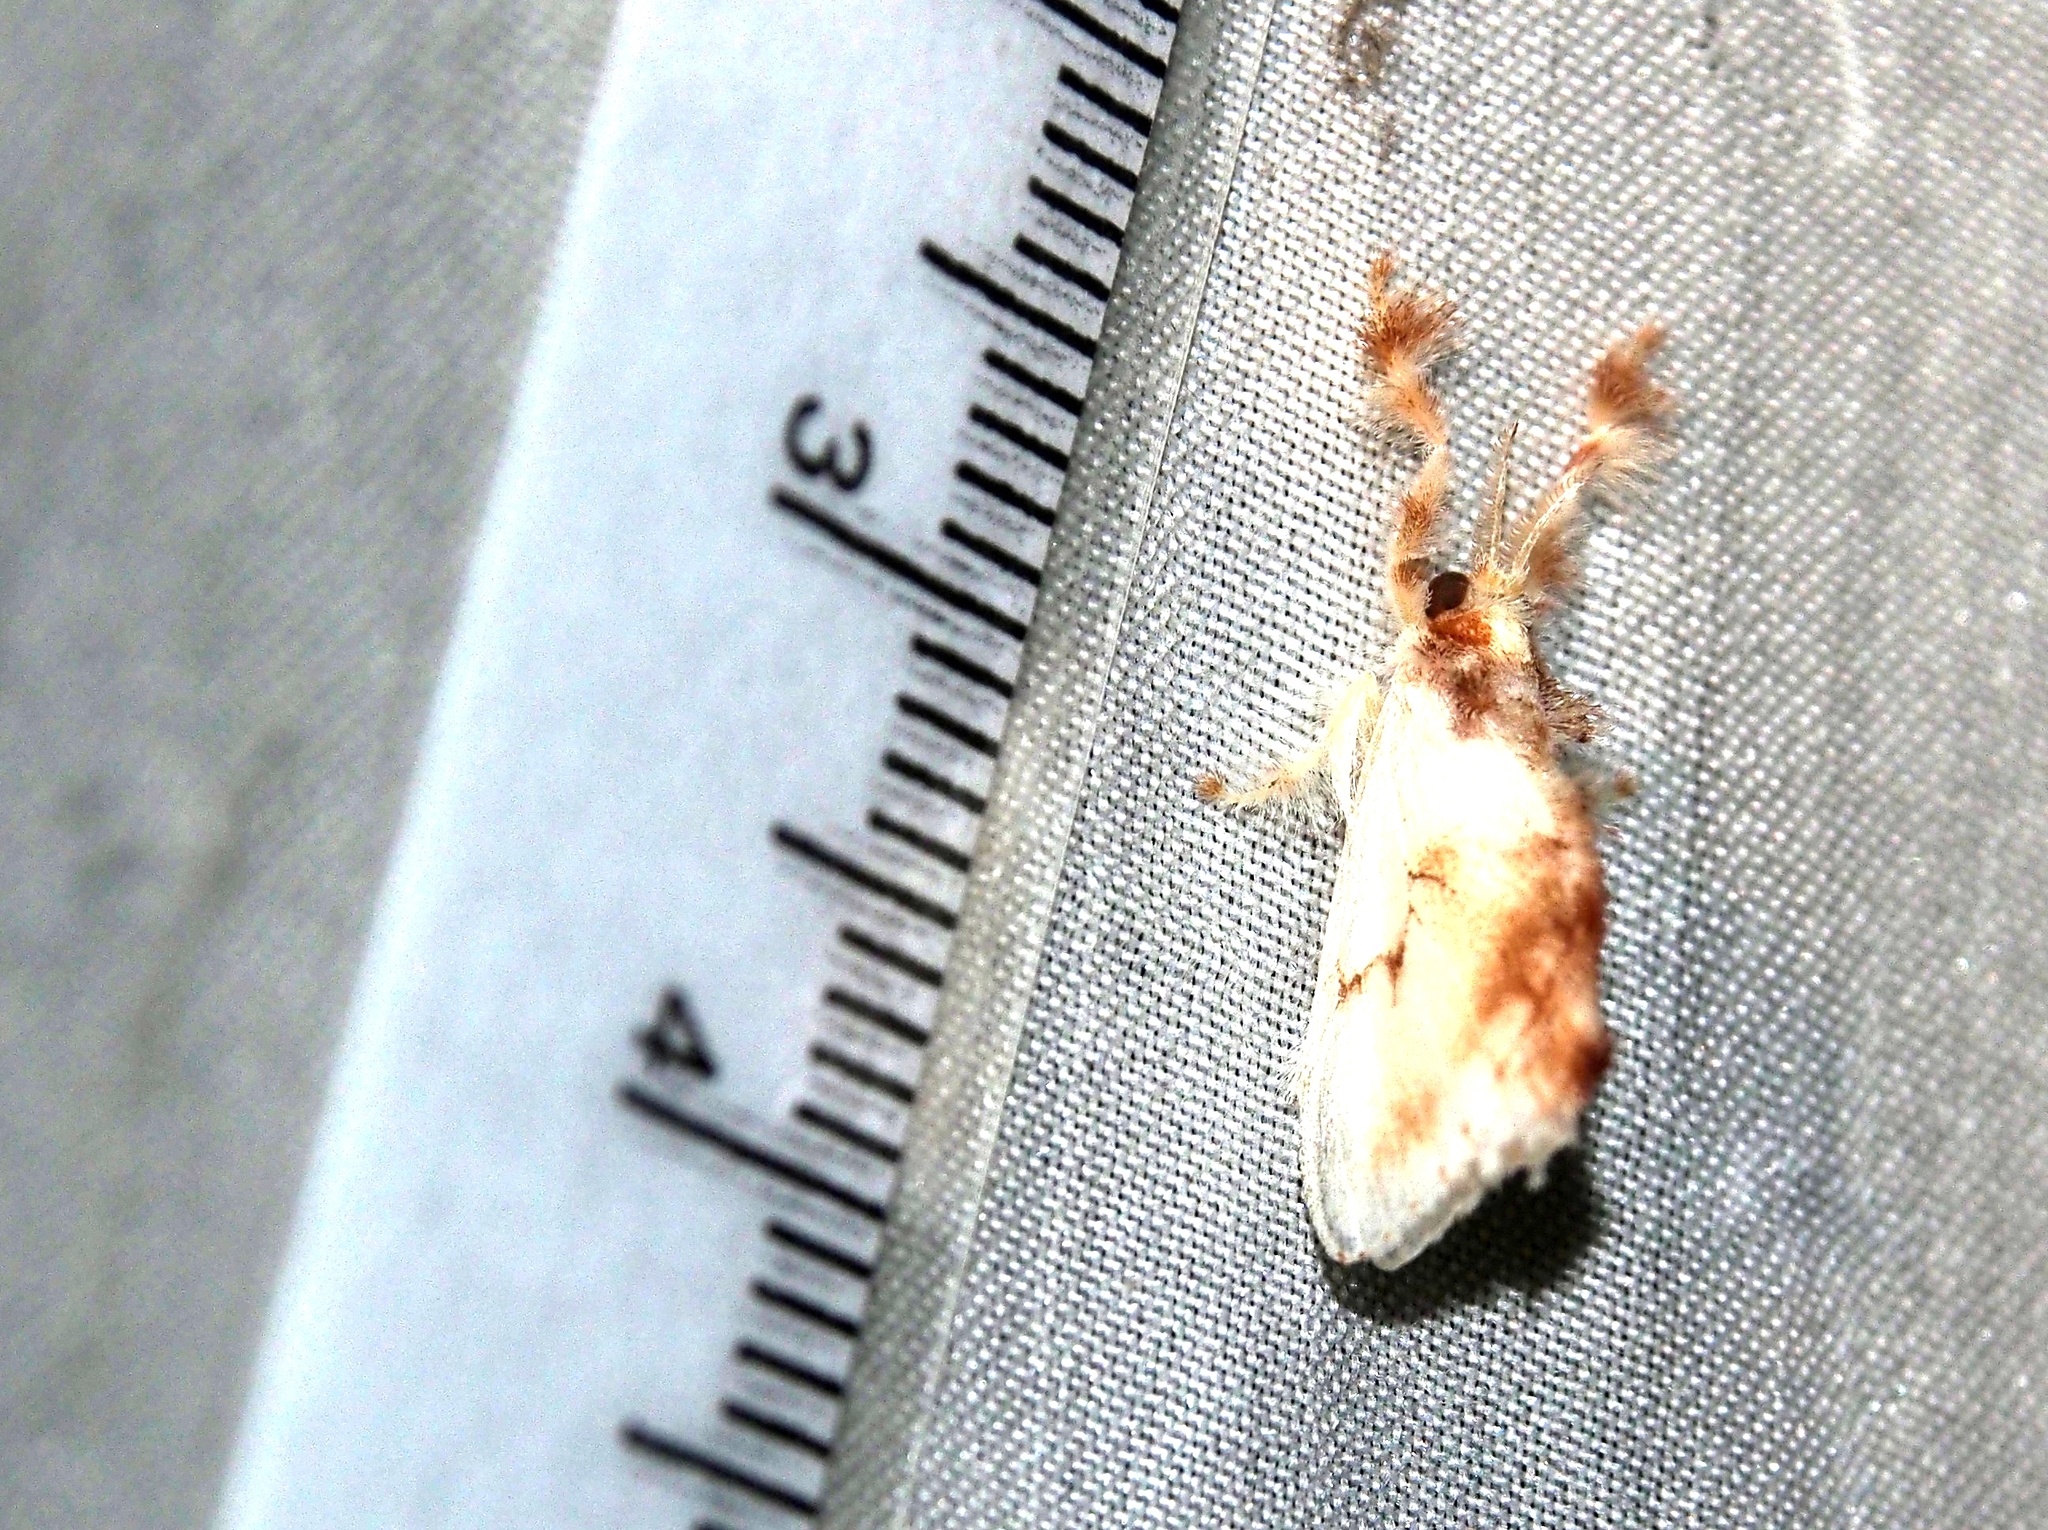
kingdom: Animalia
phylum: Arthropoda
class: Insecta
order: Lepidoptera
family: Dalceridae
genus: Dalcerides
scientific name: Dalcerides
